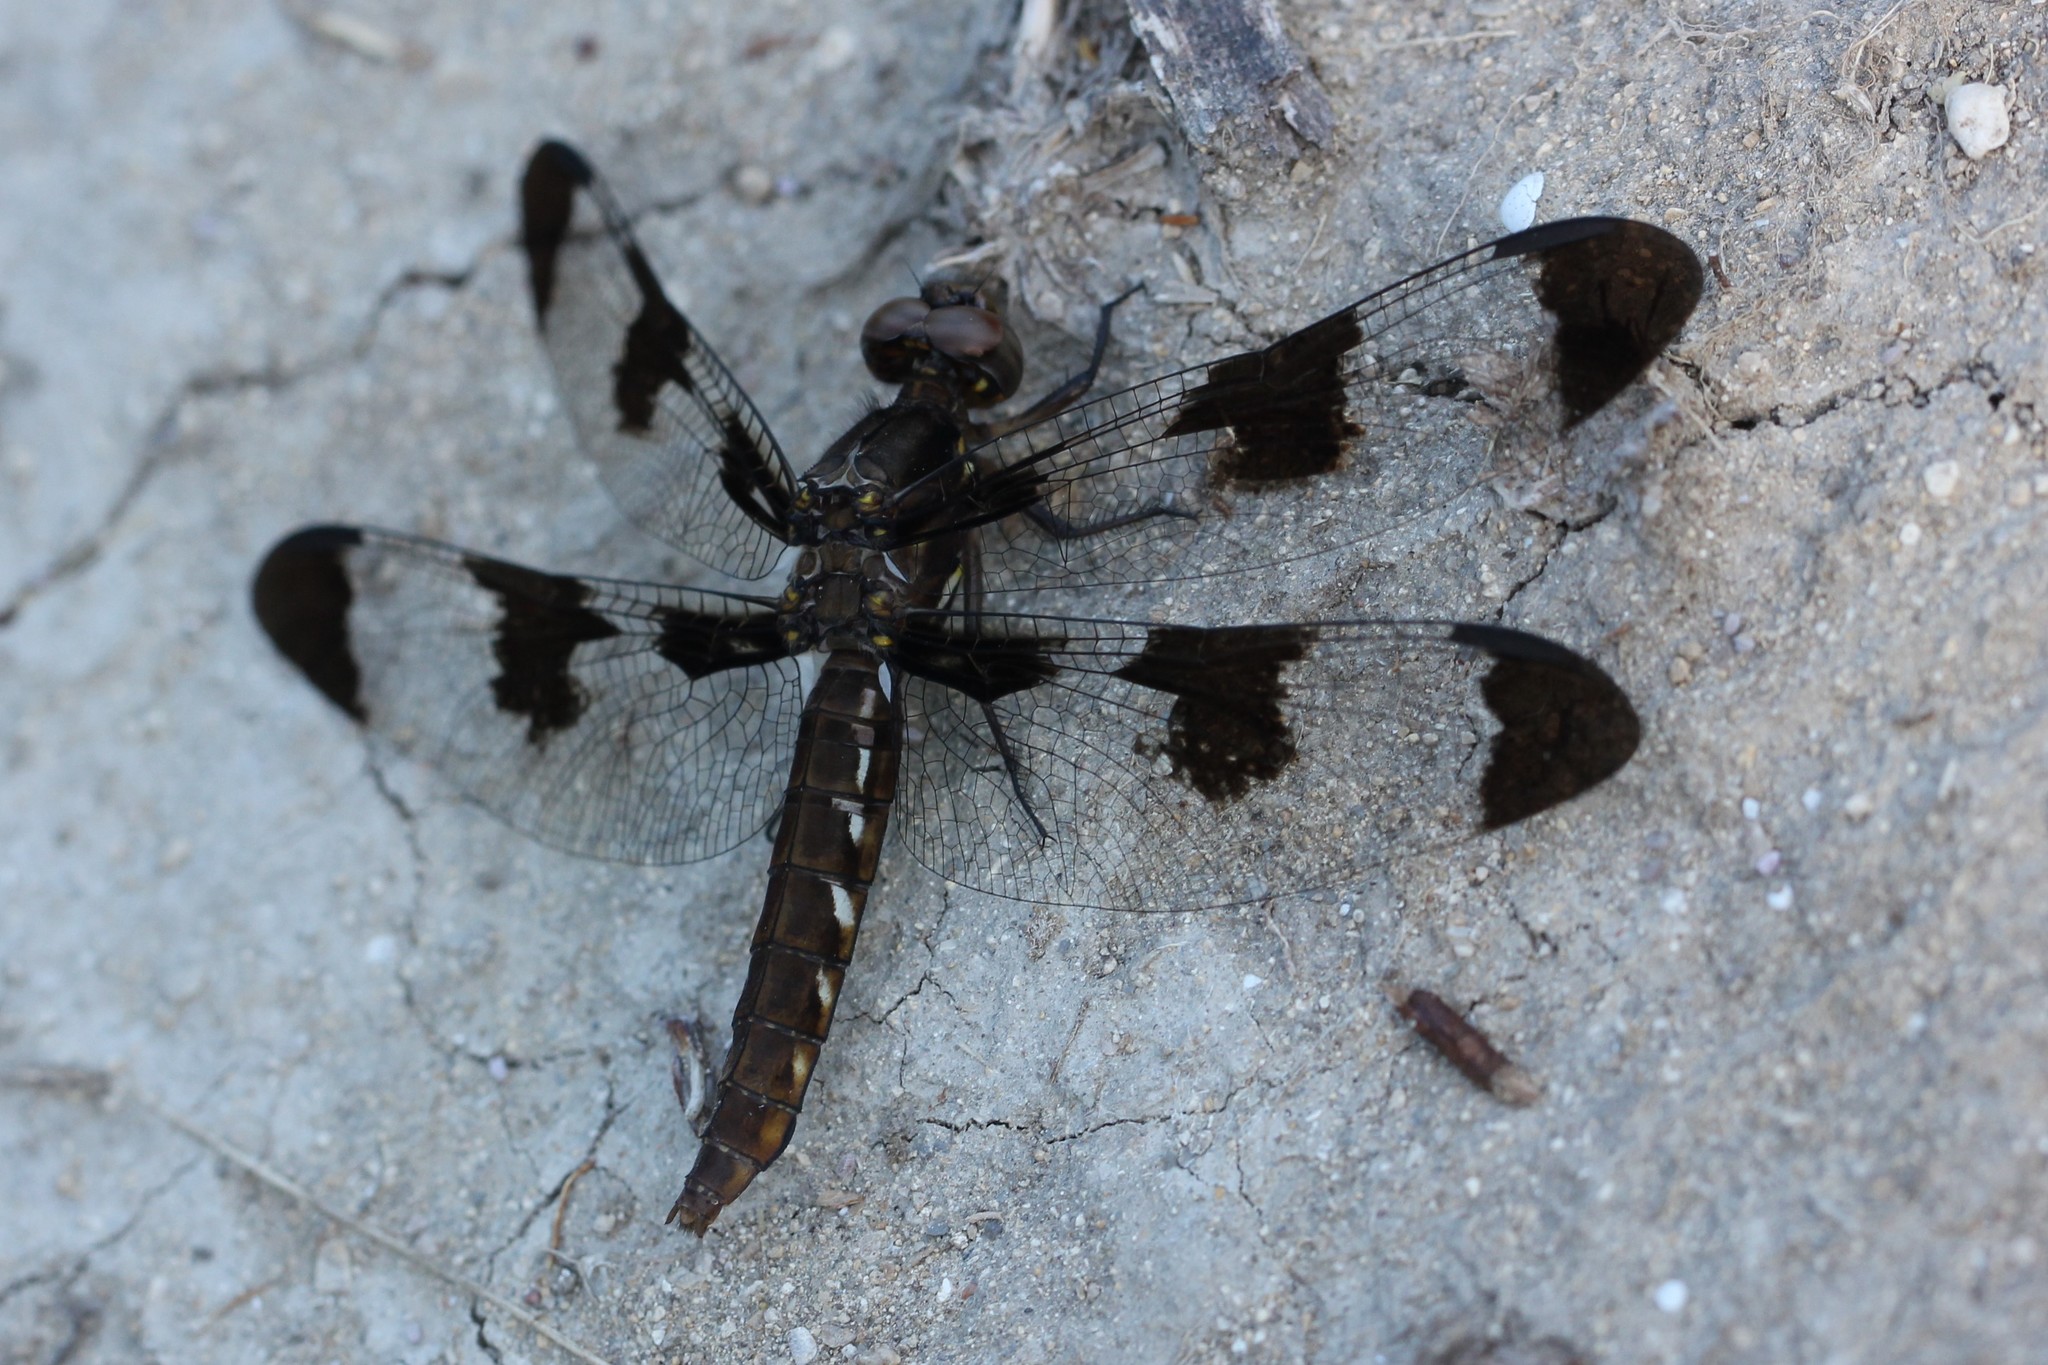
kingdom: Animalia
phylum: Arthropoda
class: Insecta
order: Odonata
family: Libellulidae
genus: Plathemis
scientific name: Plathemis lydia
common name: Common whitetail
